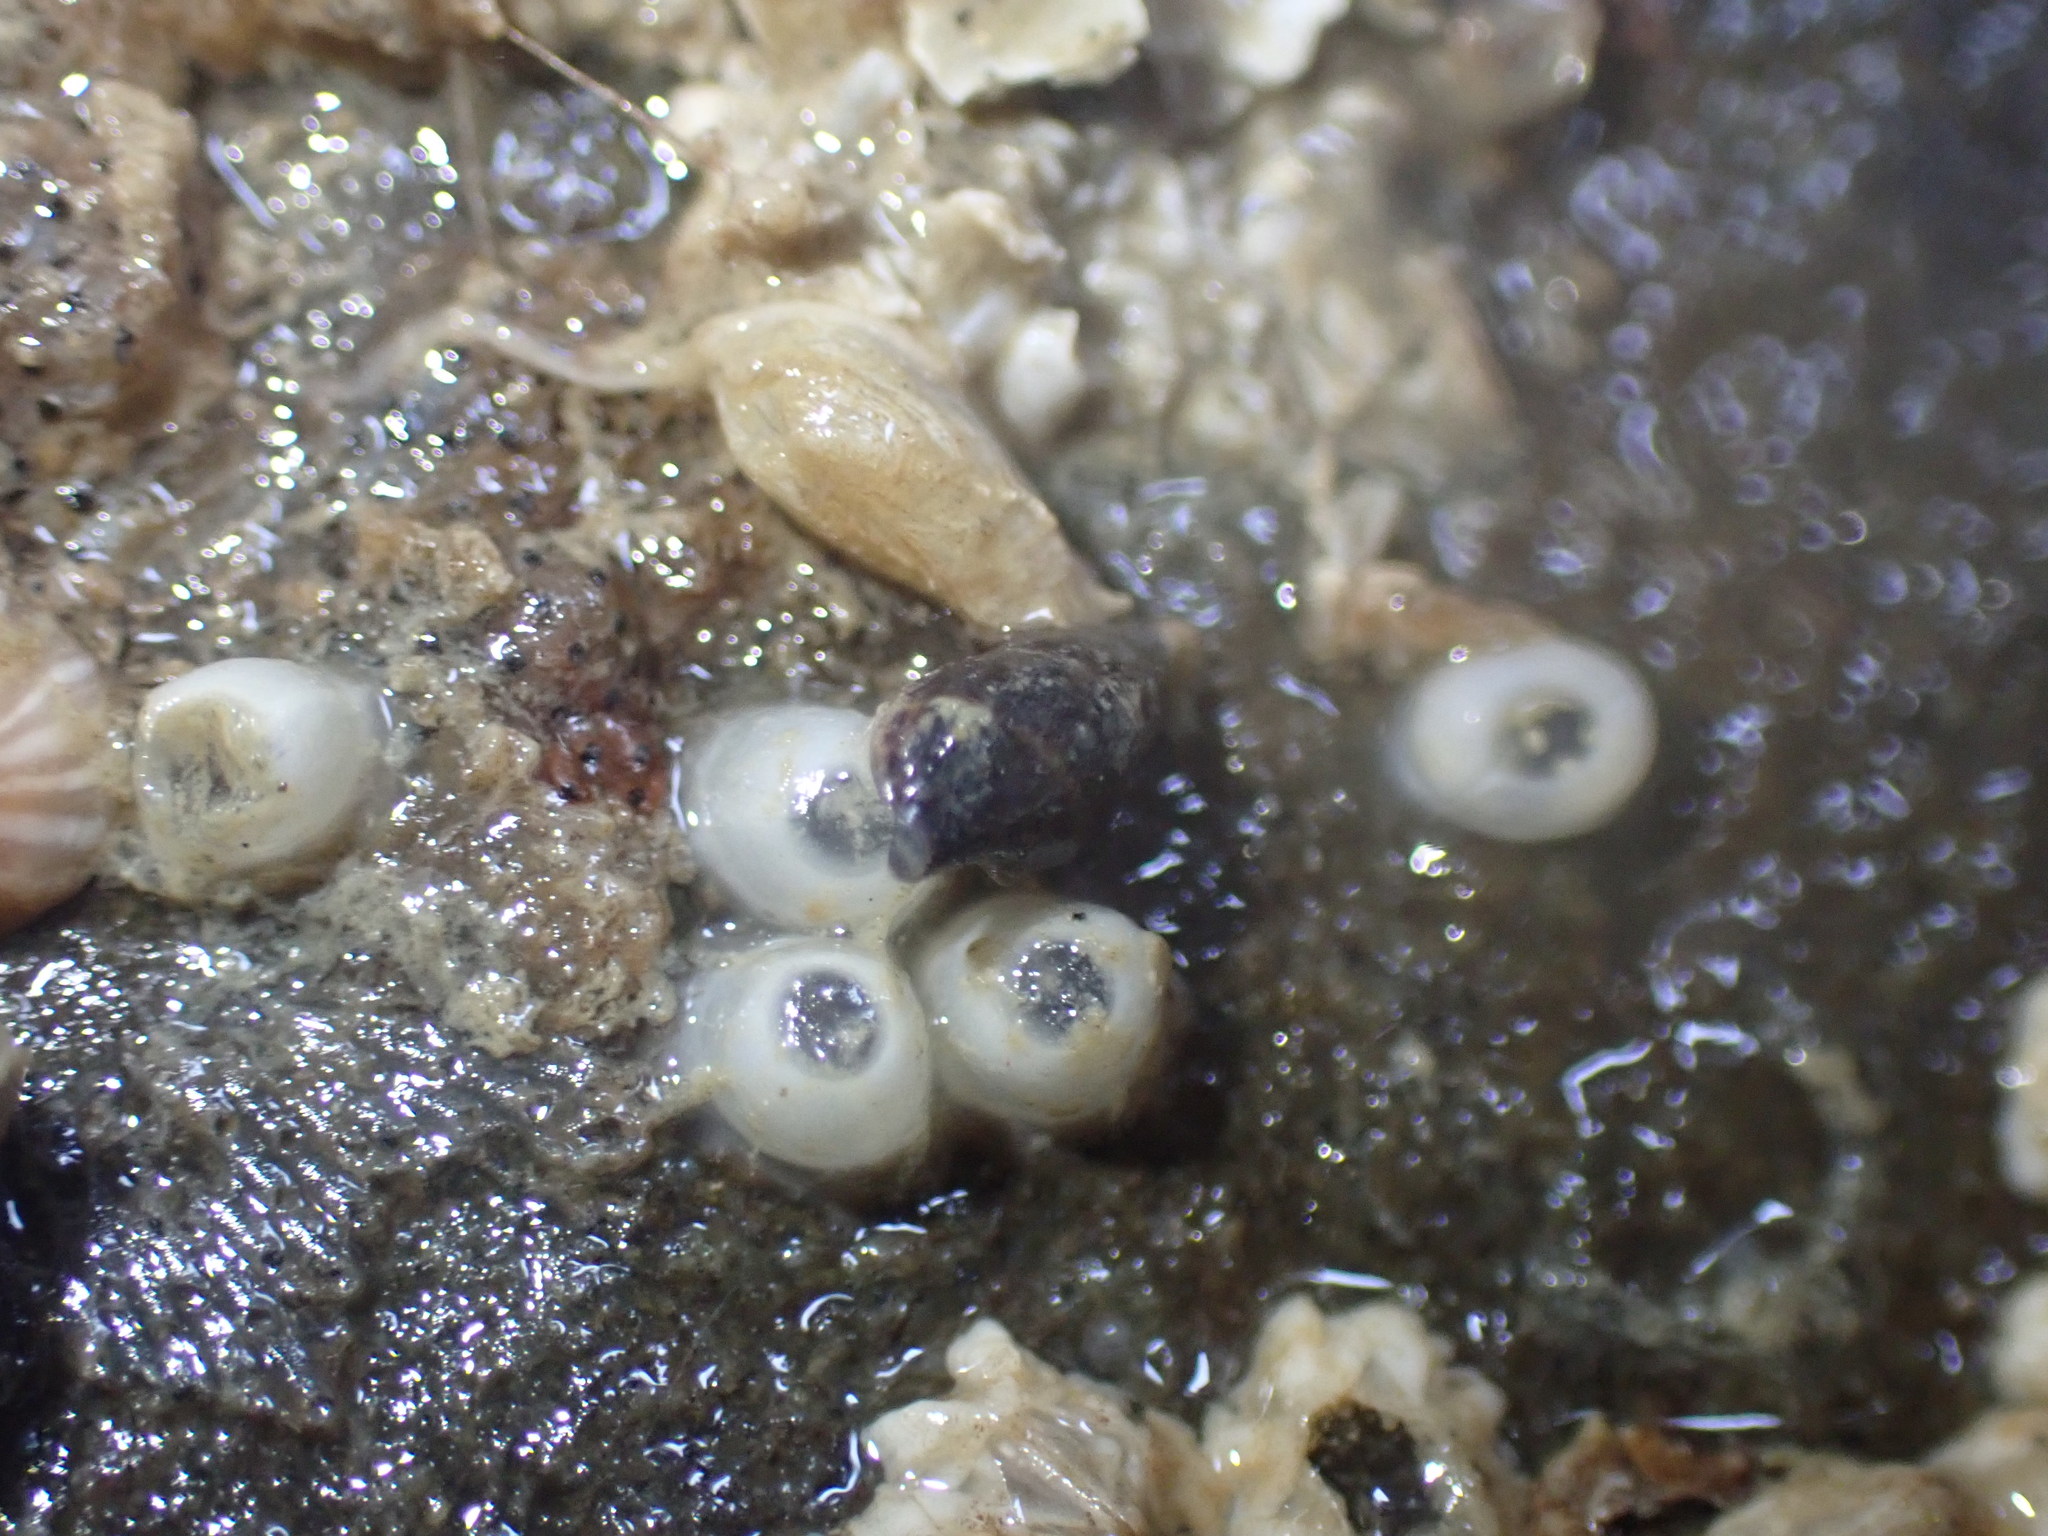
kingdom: Animalia
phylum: Mollusca
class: Gastropoda
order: Neogastropoda
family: Costellariidae
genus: Austromitra
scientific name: Austromitra rubiginosa
